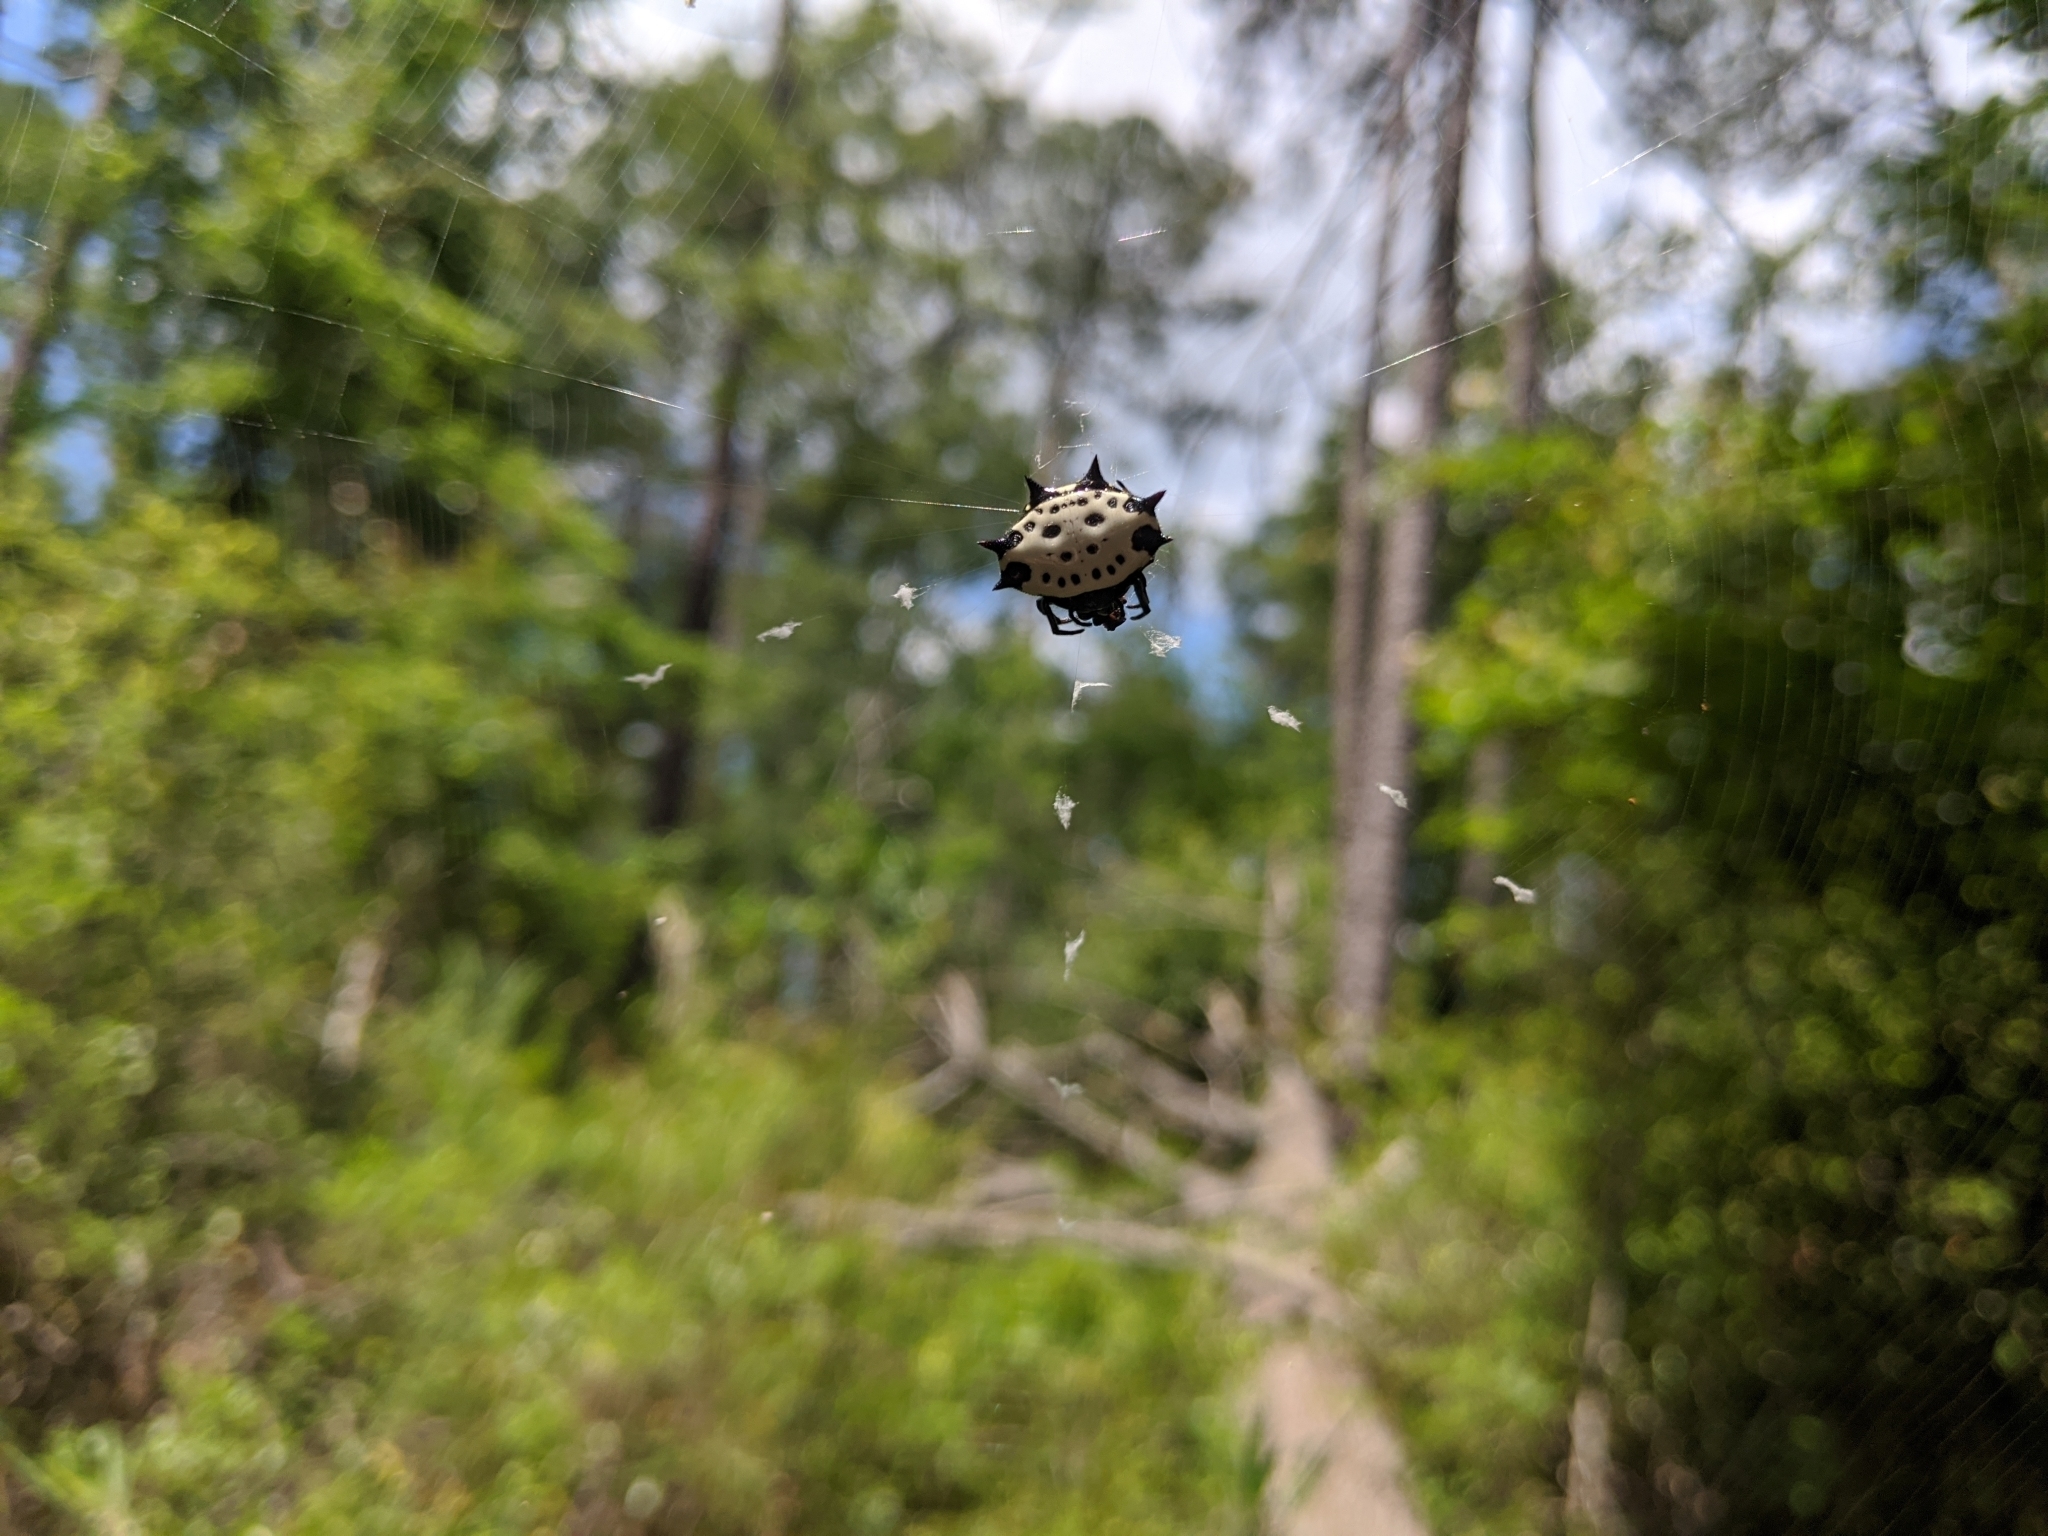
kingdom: Animalia
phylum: Arthropoda
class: Arachnida
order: Araneae
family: Araneidae
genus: Gasteracantha
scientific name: Gasteracantha cancriformis
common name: Orb weavers
